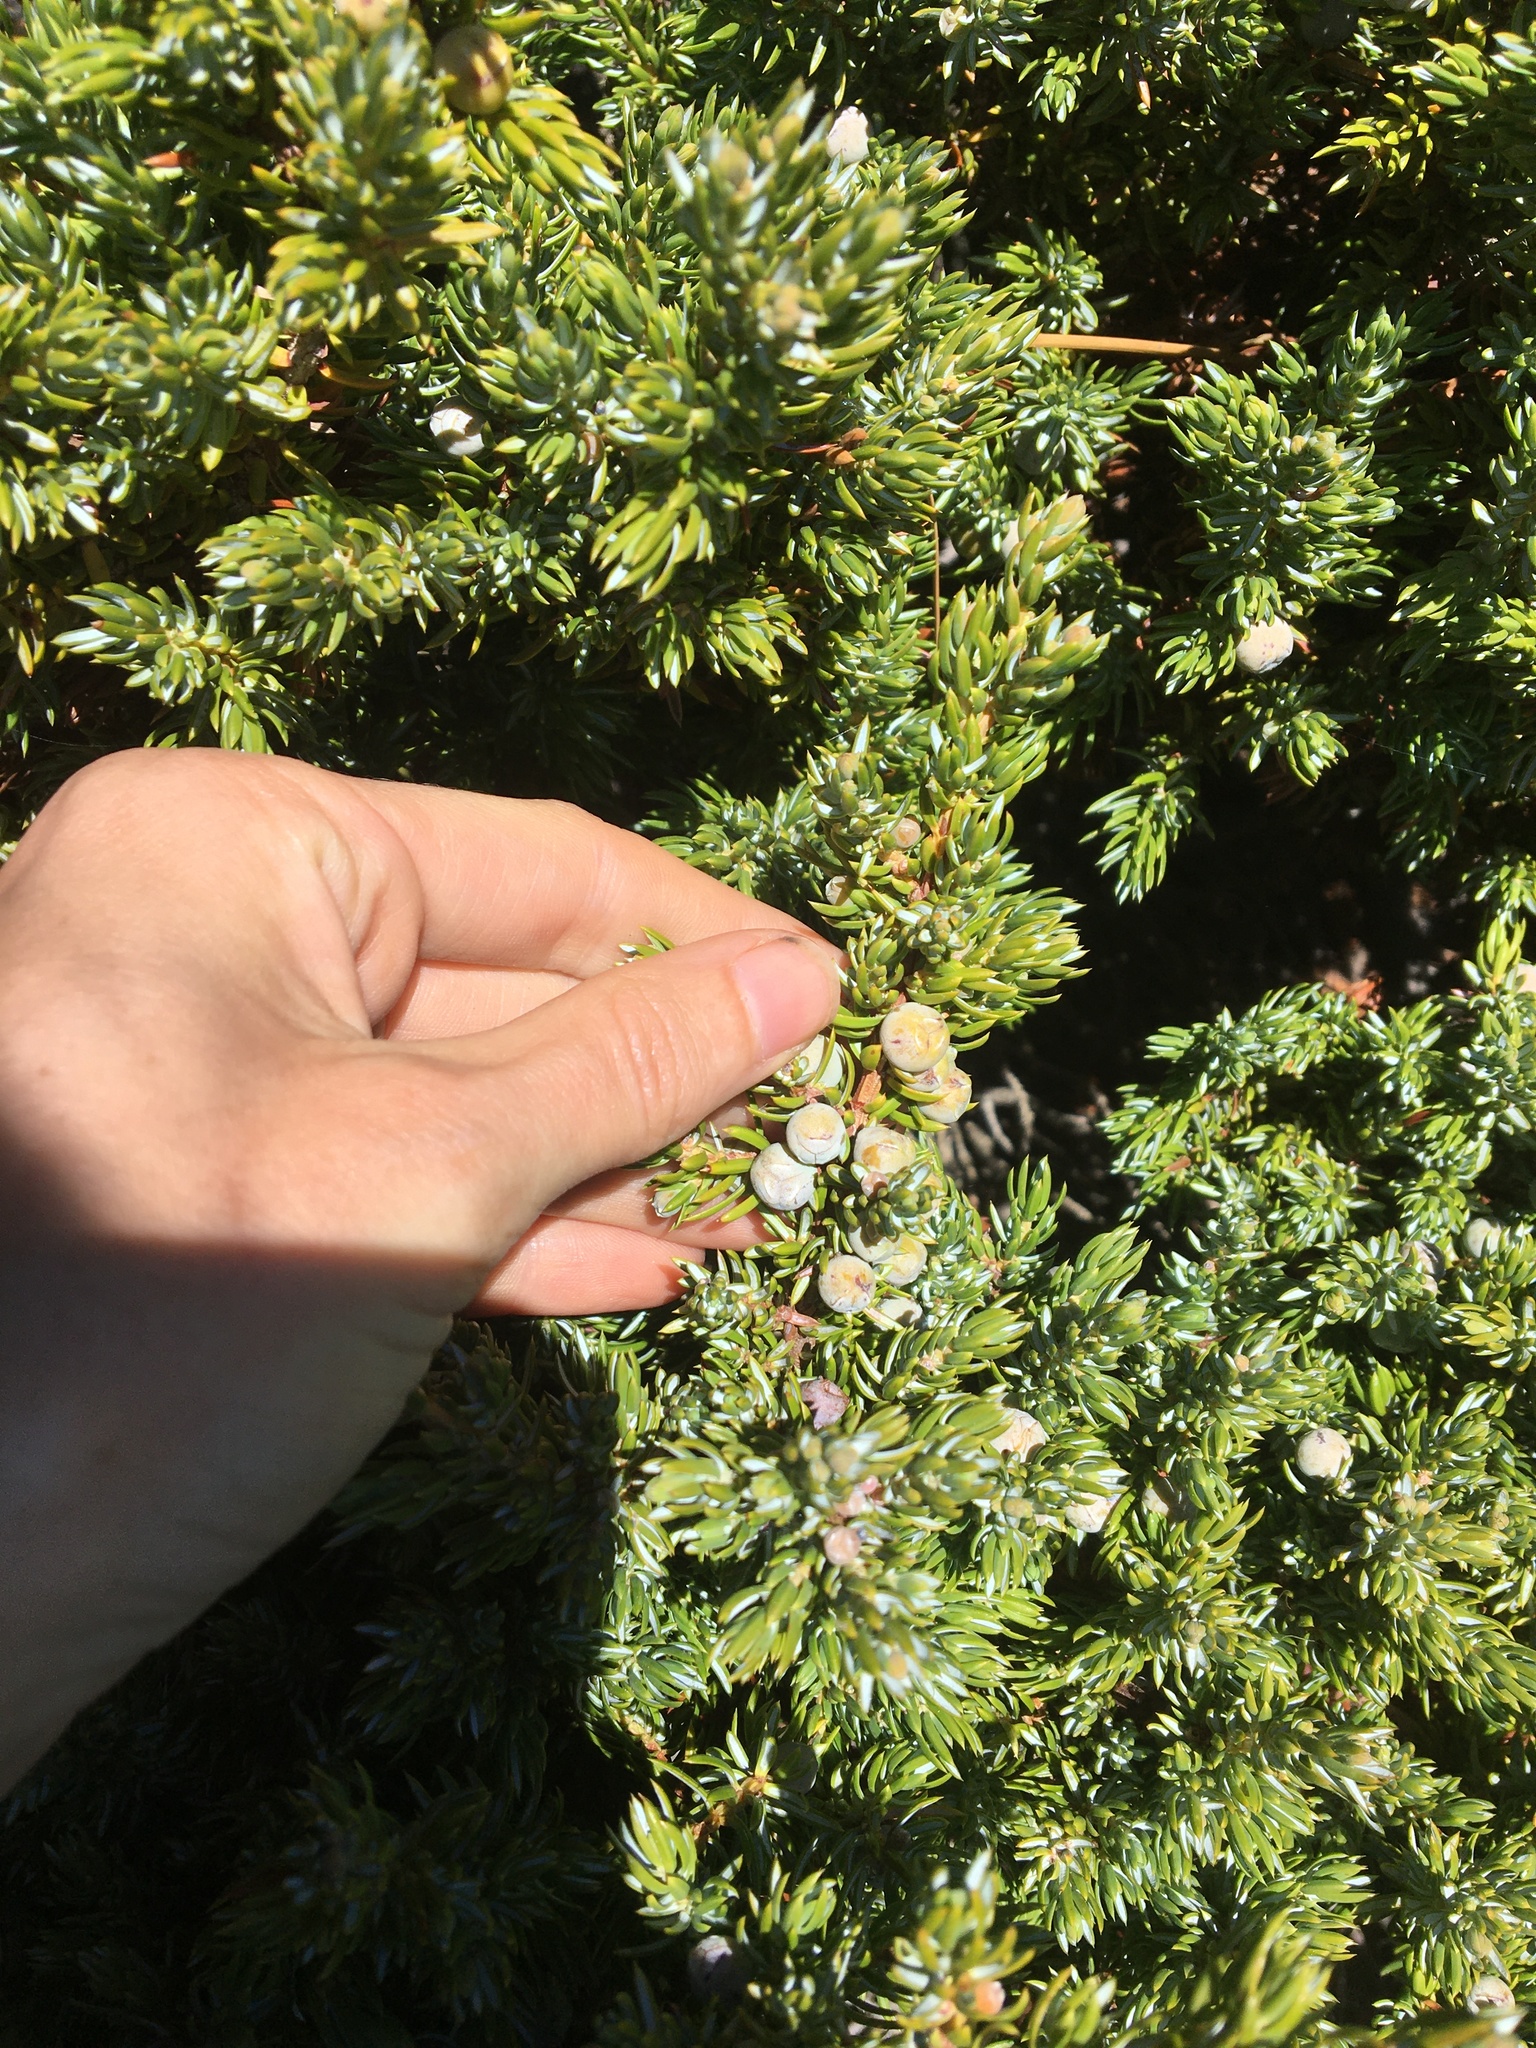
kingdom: Plantae
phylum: Tracheophyta
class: Pinopsida
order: Pinales
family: Cupressaceae
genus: Juniperus
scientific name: Juniperus communis
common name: Common juniper
